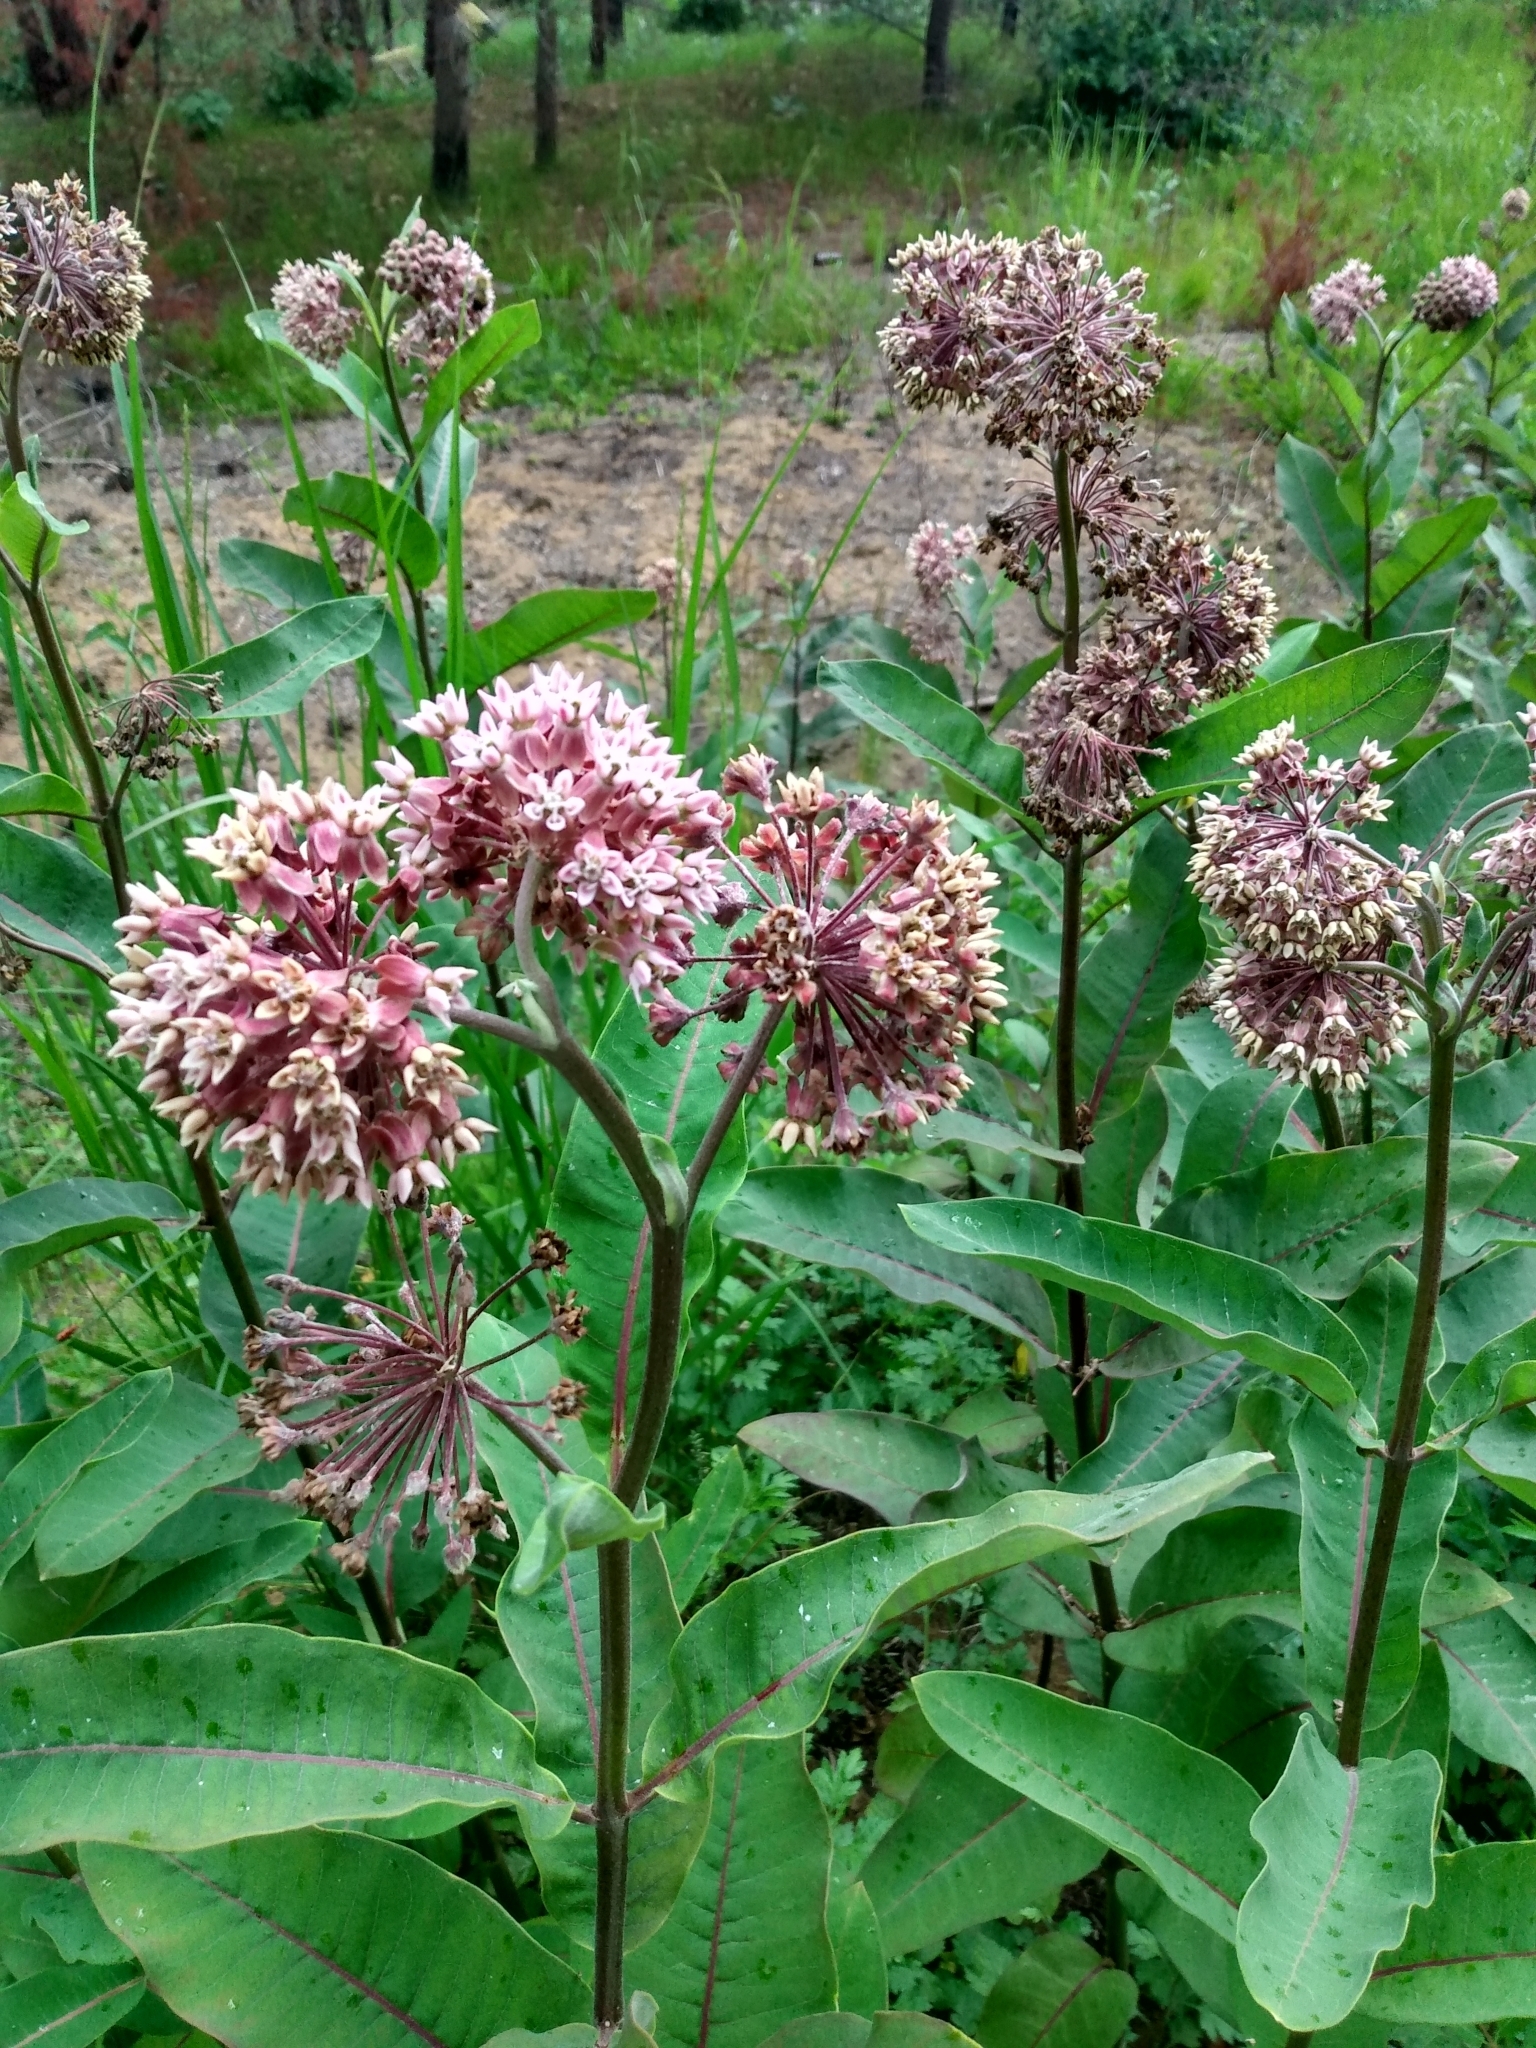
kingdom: Plantae
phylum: Tracheophyta
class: Magnoliopsida
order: Gentianales
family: Apocynaceae
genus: Asclepias
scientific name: Asclepias syriaca
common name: Common milkweed
